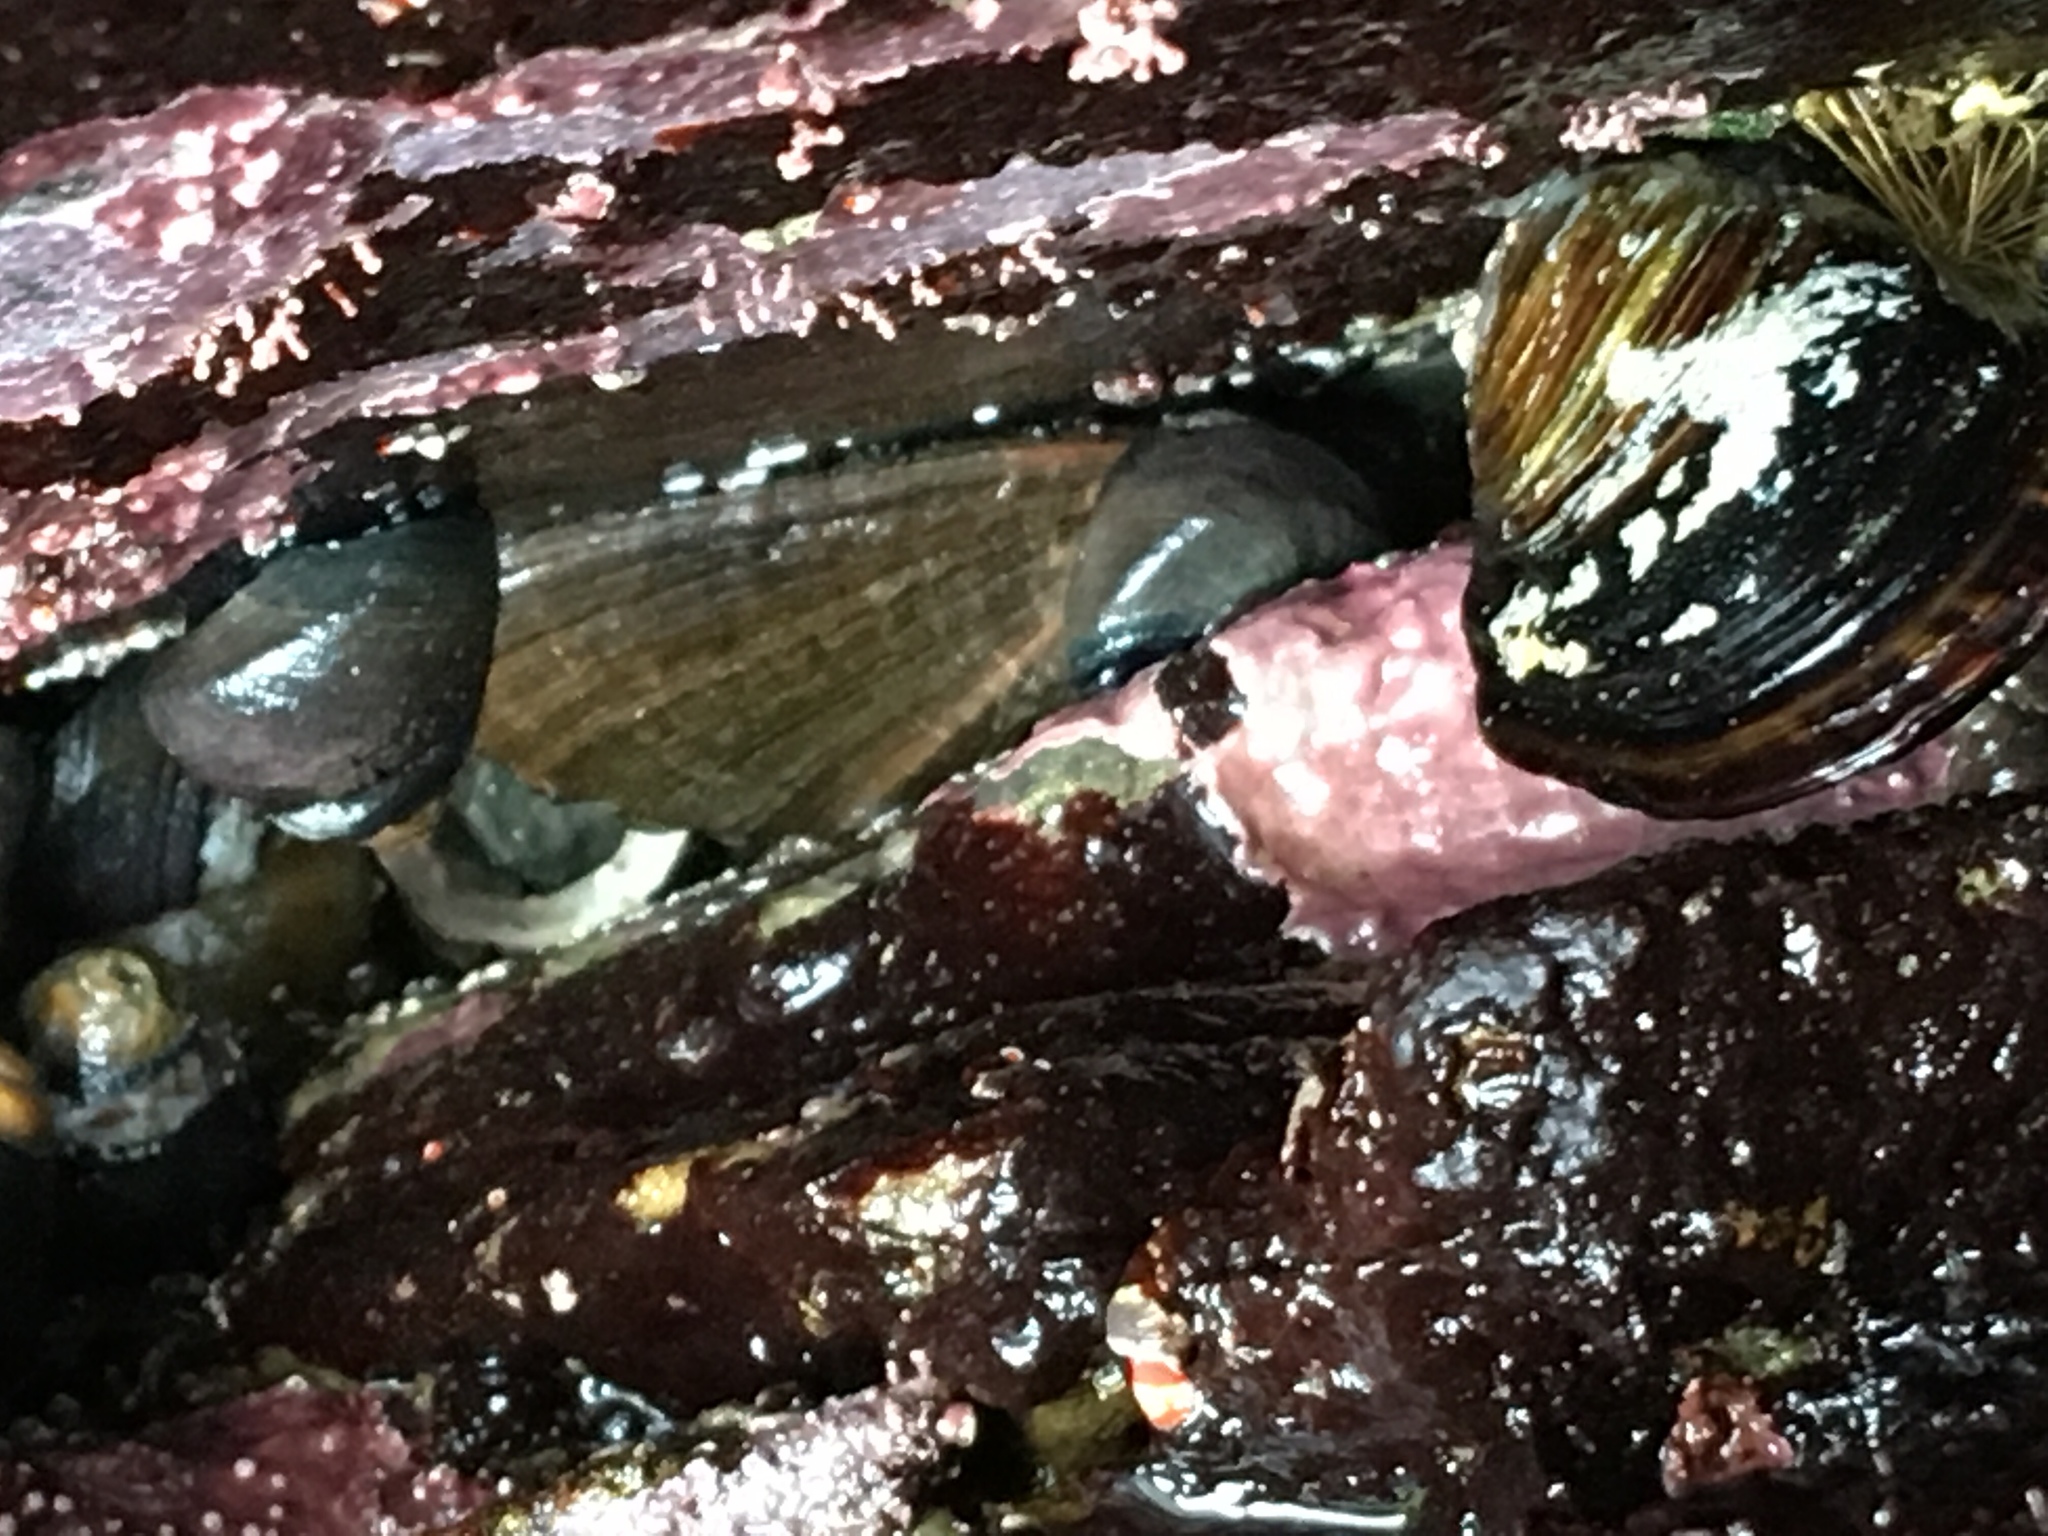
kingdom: Animalia
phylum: Mollusca
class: Gastropoda
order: Lepetellida
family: Haliotidae
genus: Haliotis
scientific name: Haliotis cracherodii
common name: Black abalone
